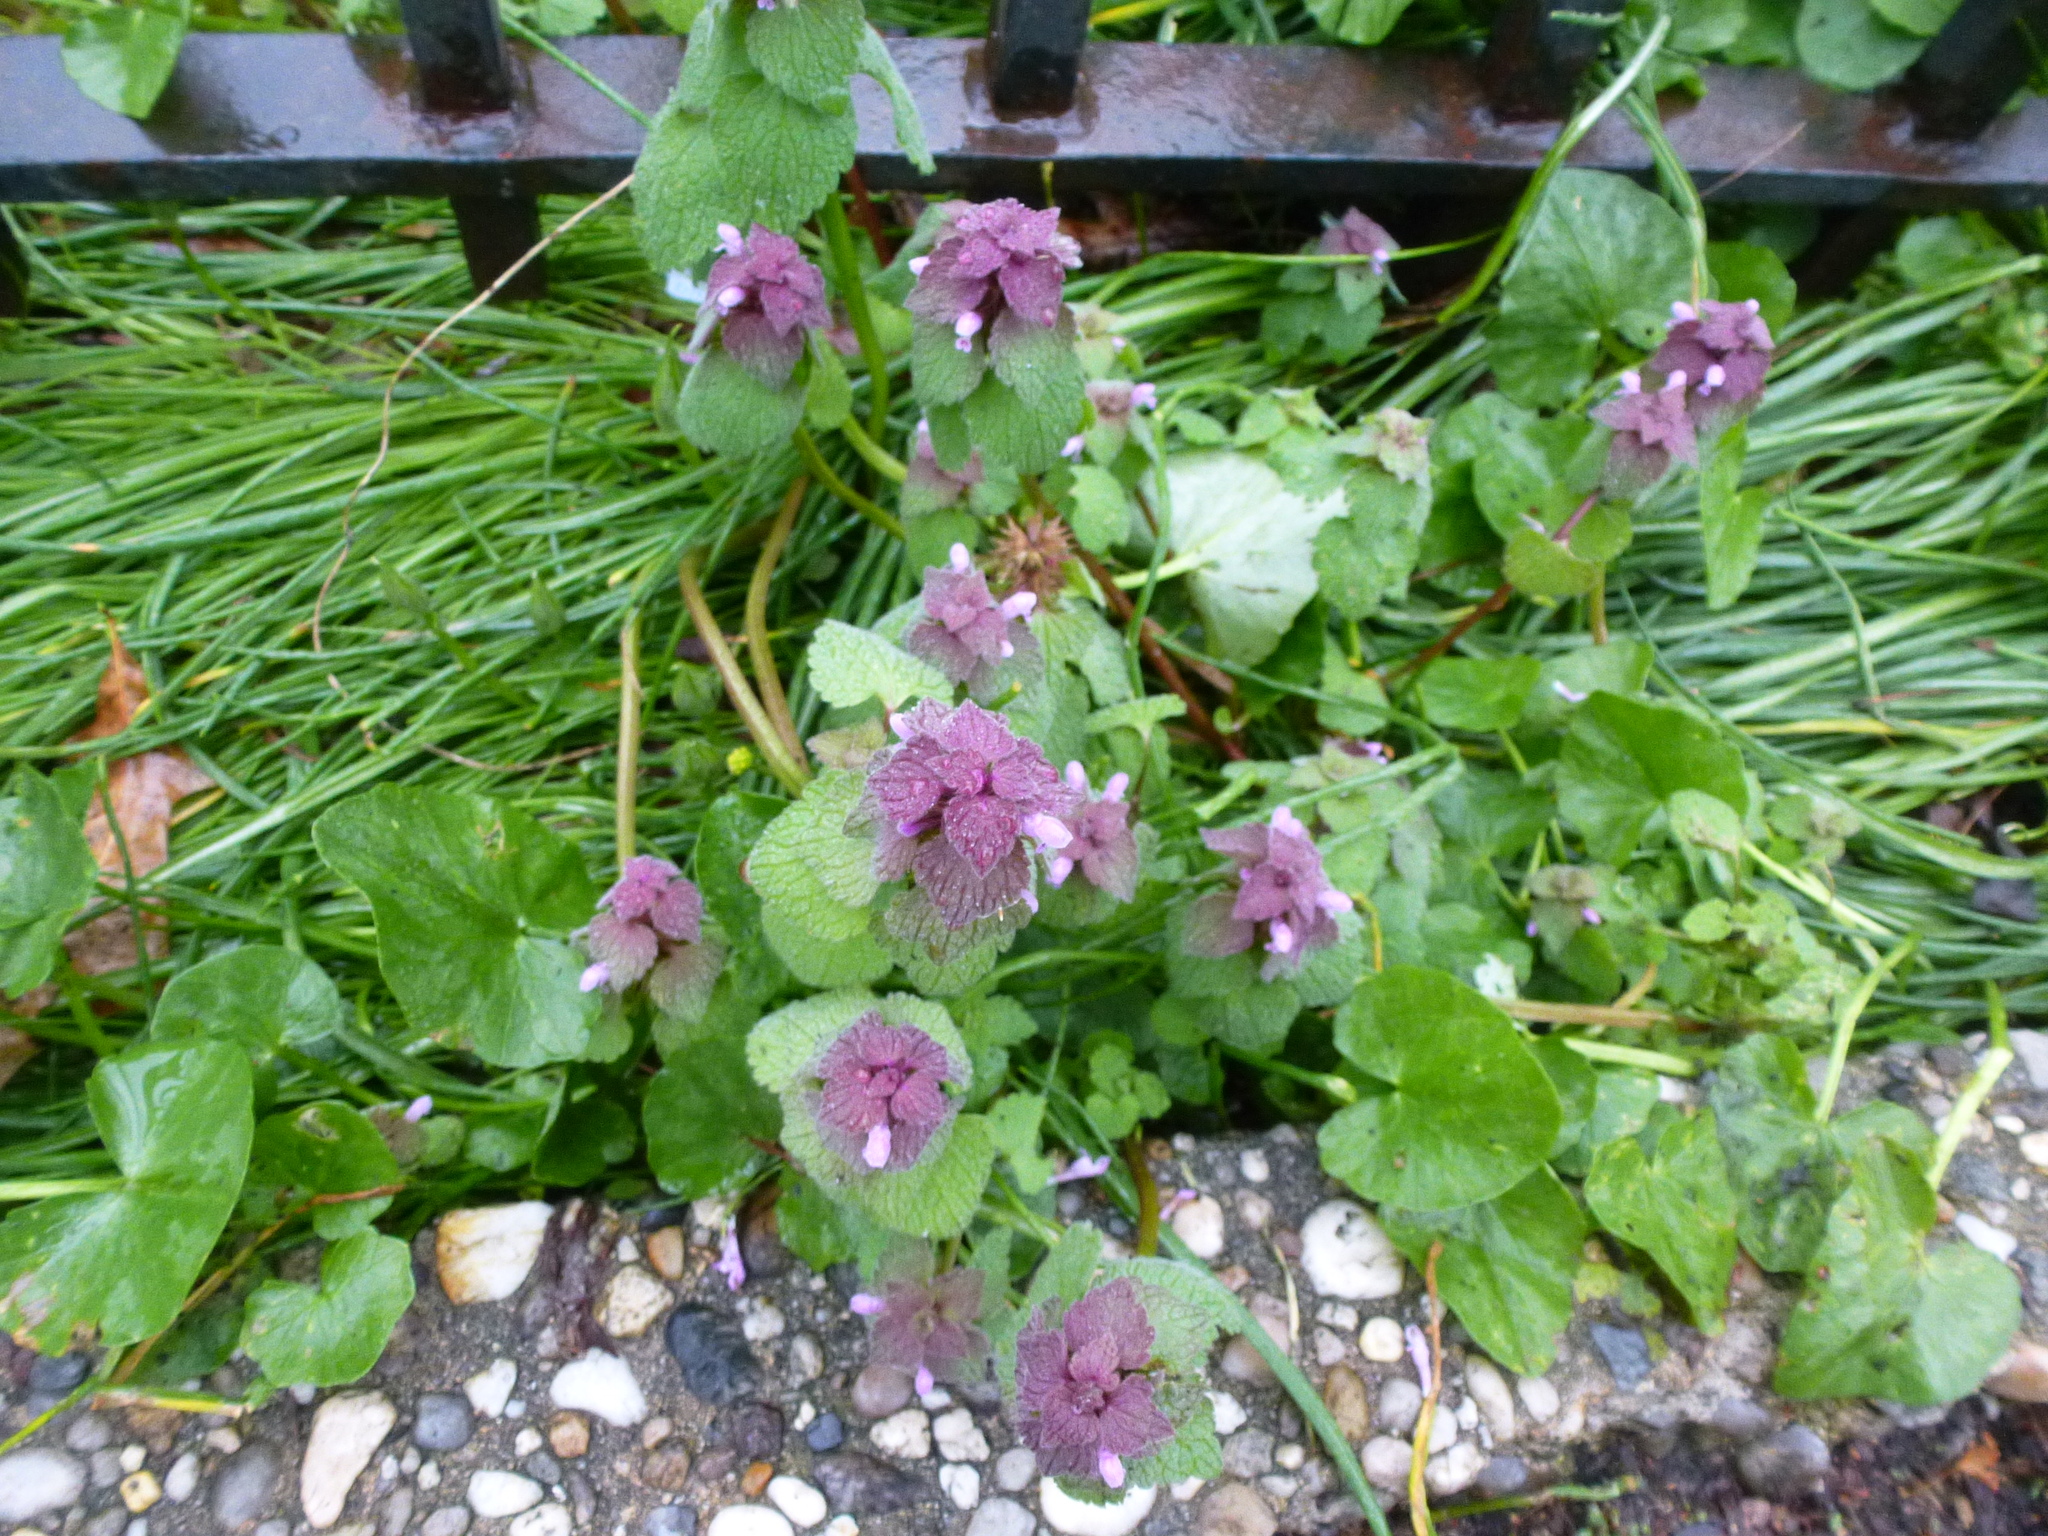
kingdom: Plantae
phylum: Tracheophyta
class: Magnoliopsida
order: Lamiales
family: Lamiaceae
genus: Lamium
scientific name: Lamium purpureum
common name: Red dead-nettle
